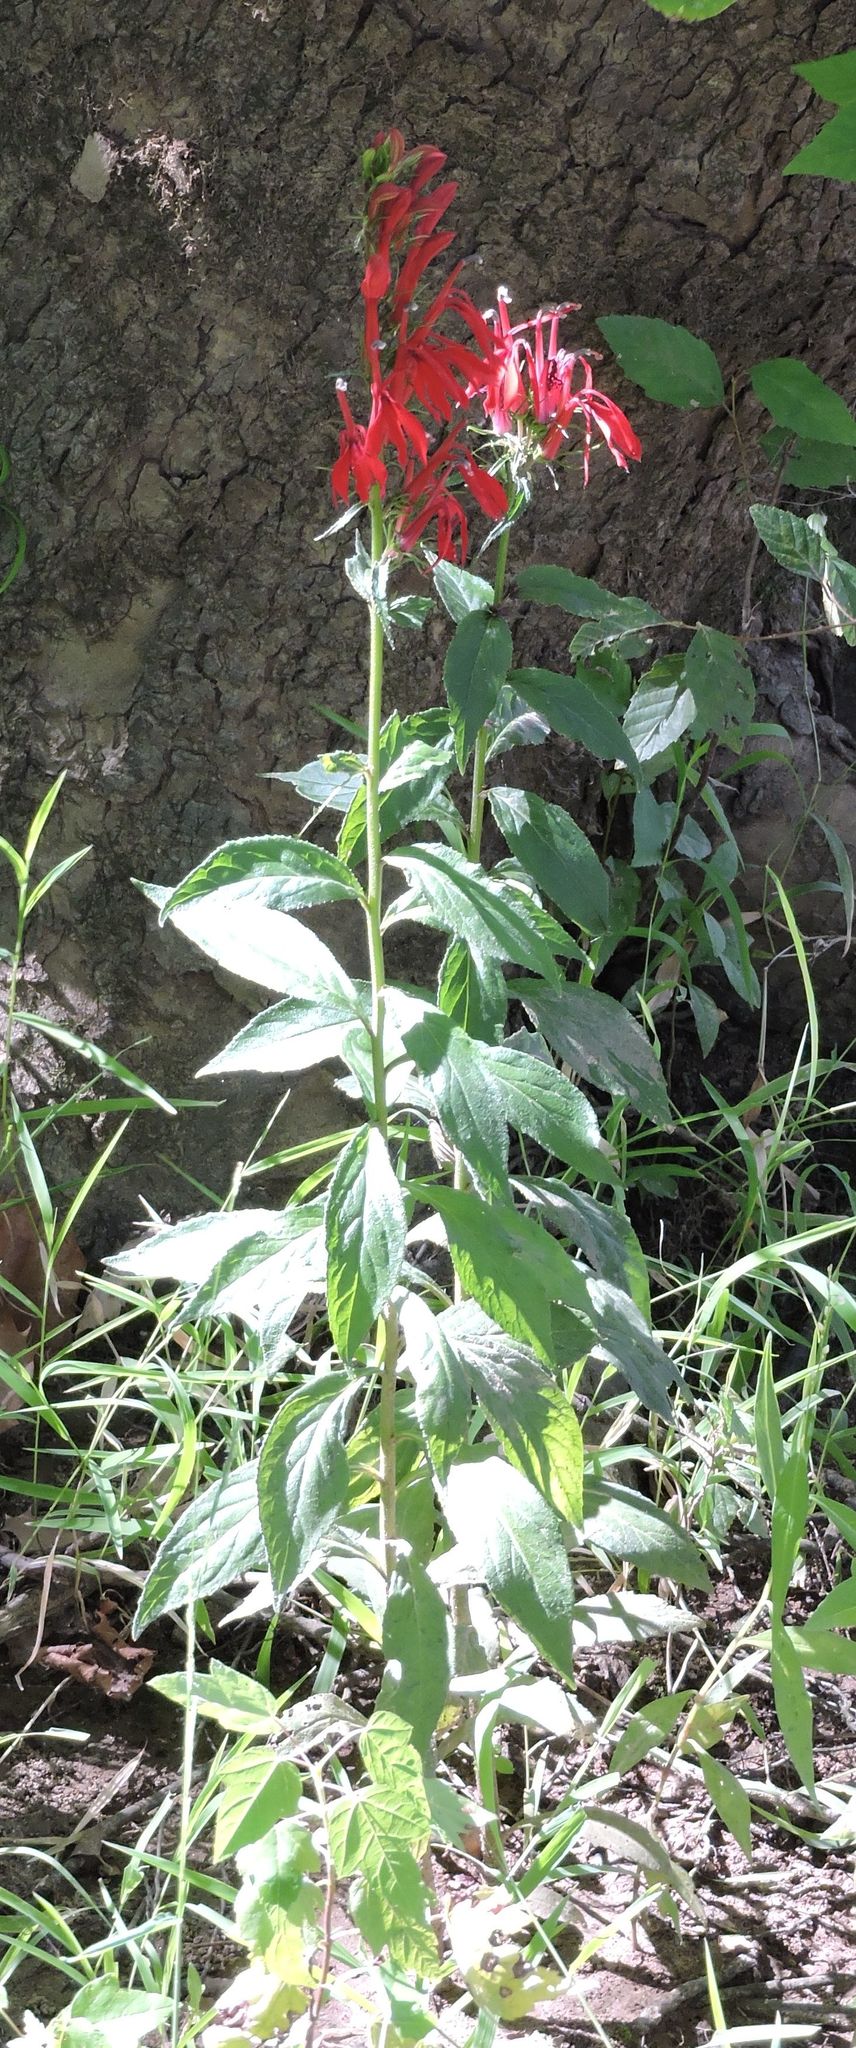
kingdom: Plantae
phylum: Tracheophyta
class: Magnoliopsida
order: Asterales
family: Campanulaceae
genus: Lobelia
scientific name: Lobelia cardinalis
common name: Cardinal flower
